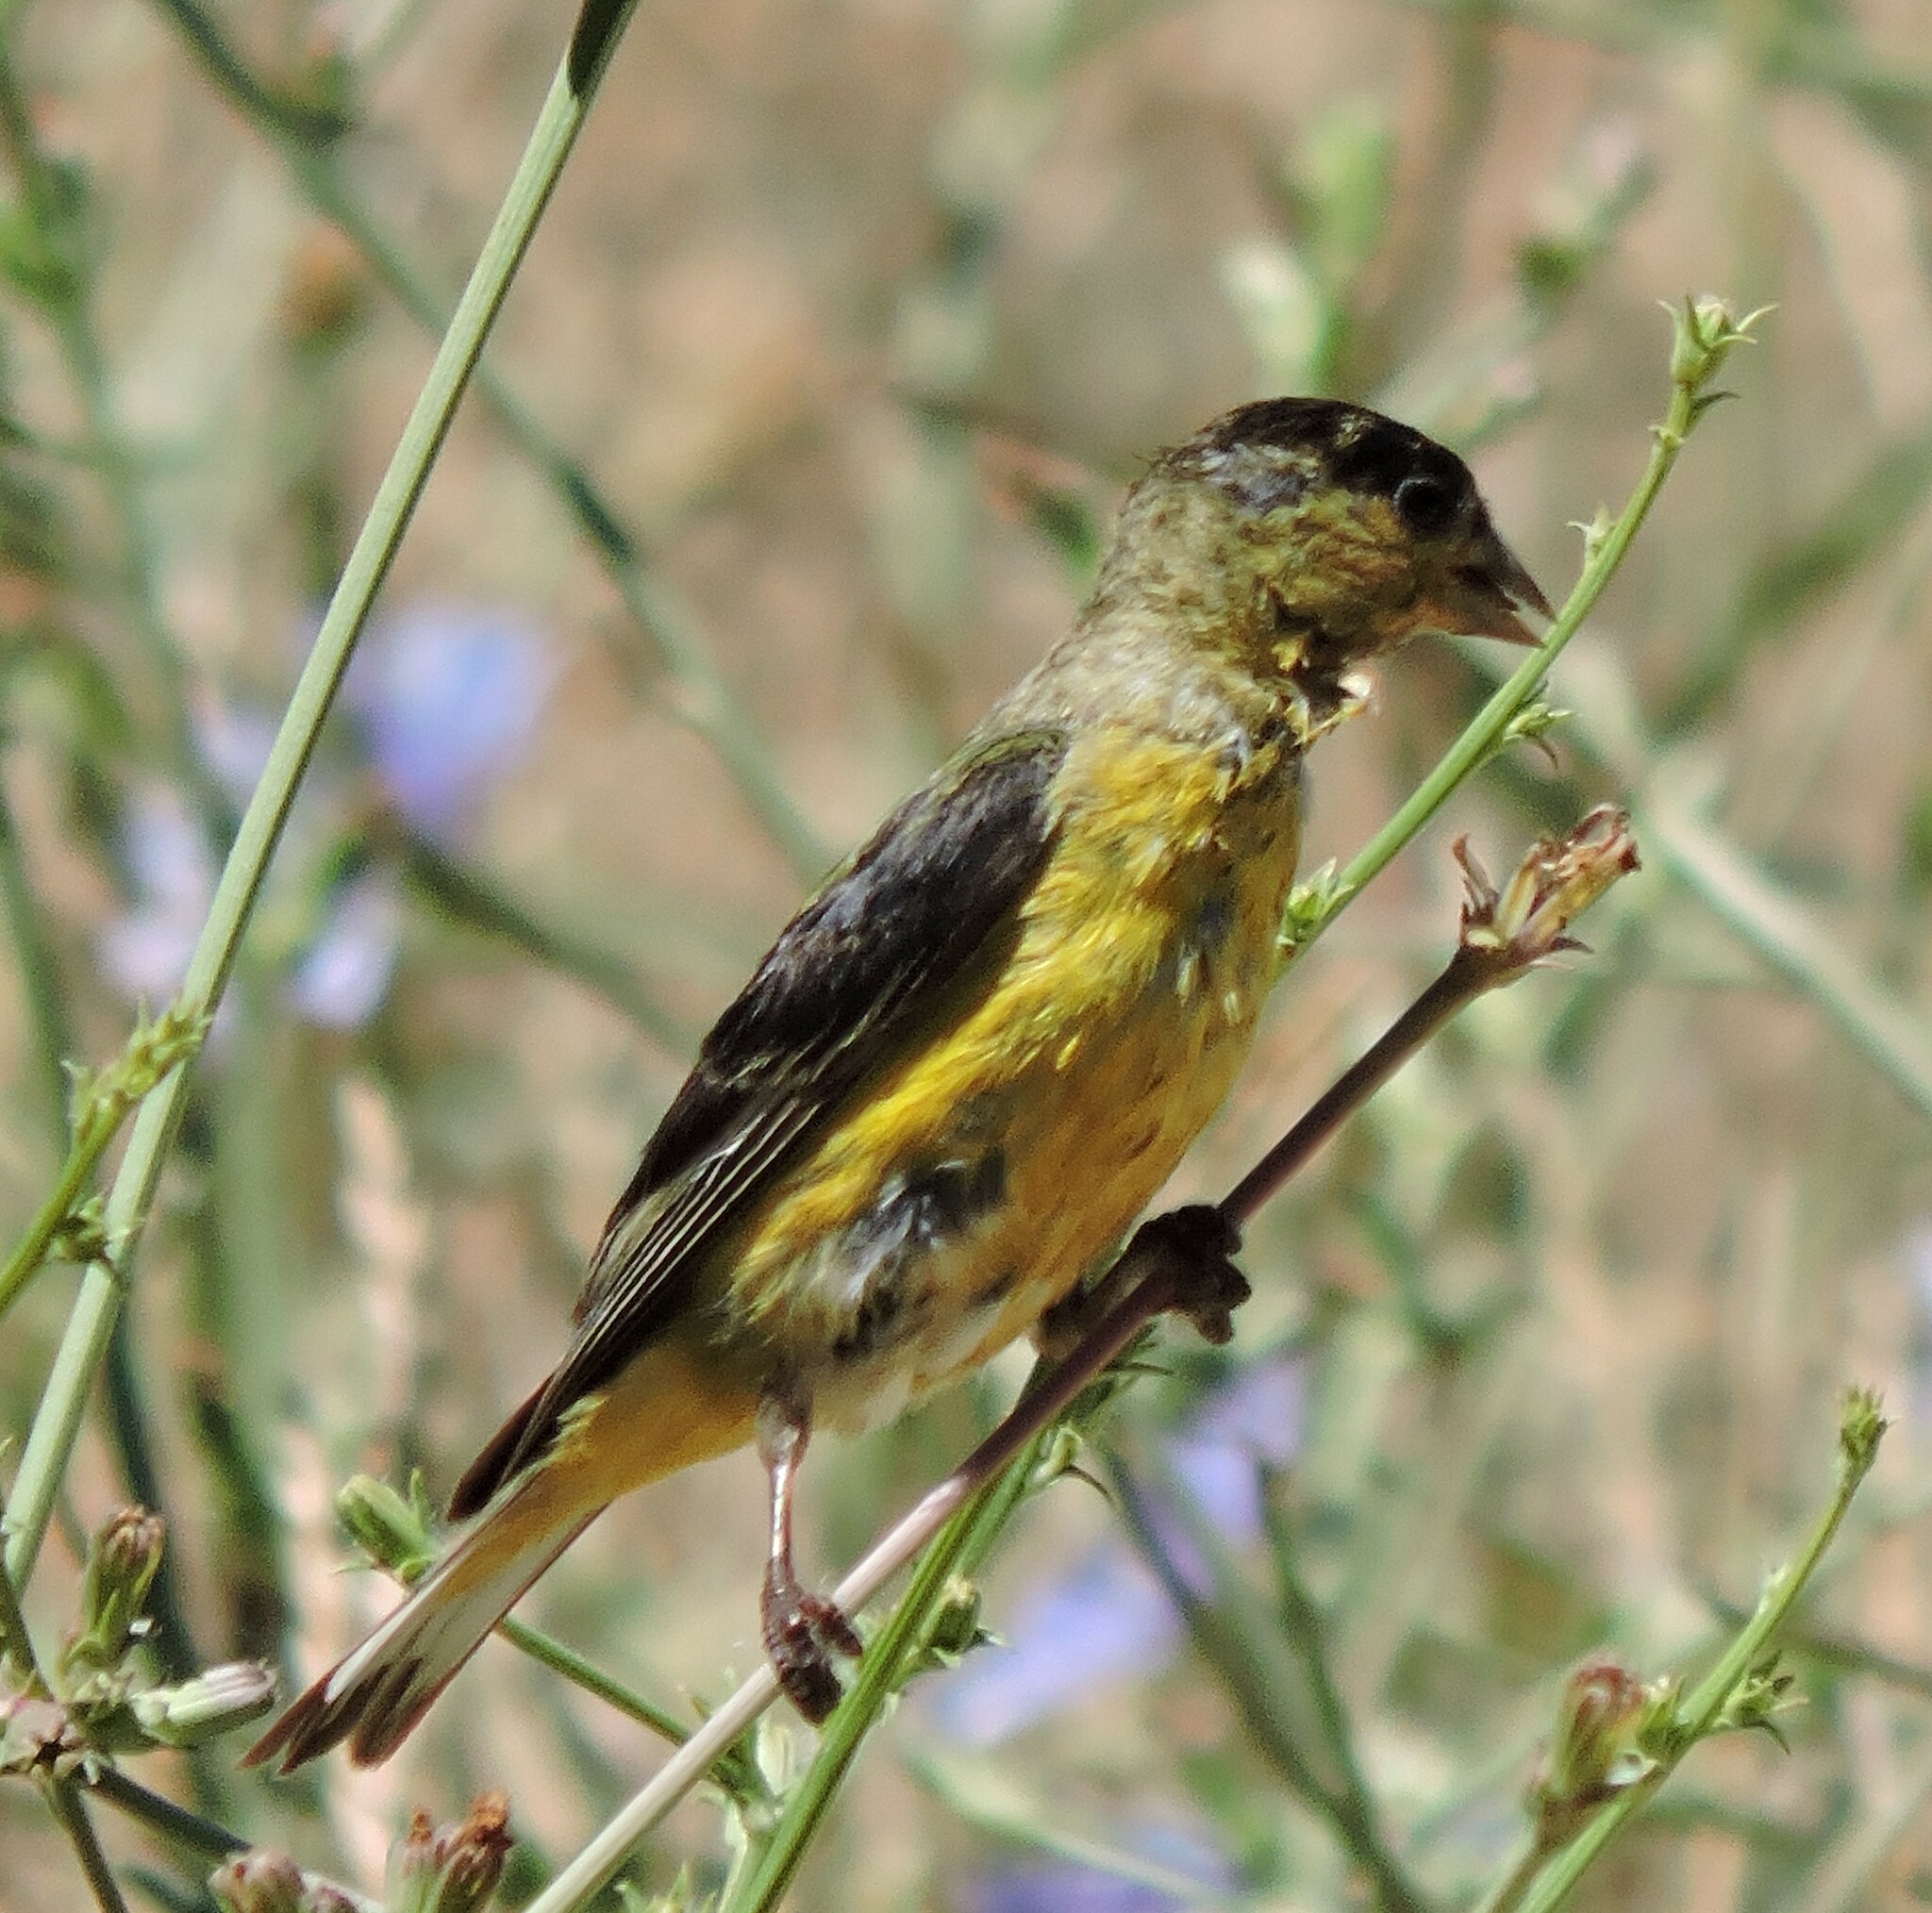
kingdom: Animalia
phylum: Chordata
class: Aves
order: Passeriformes
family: Fringillidae
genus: Spinus
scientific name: Spinus psaltria
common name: Lesser goldfinch
